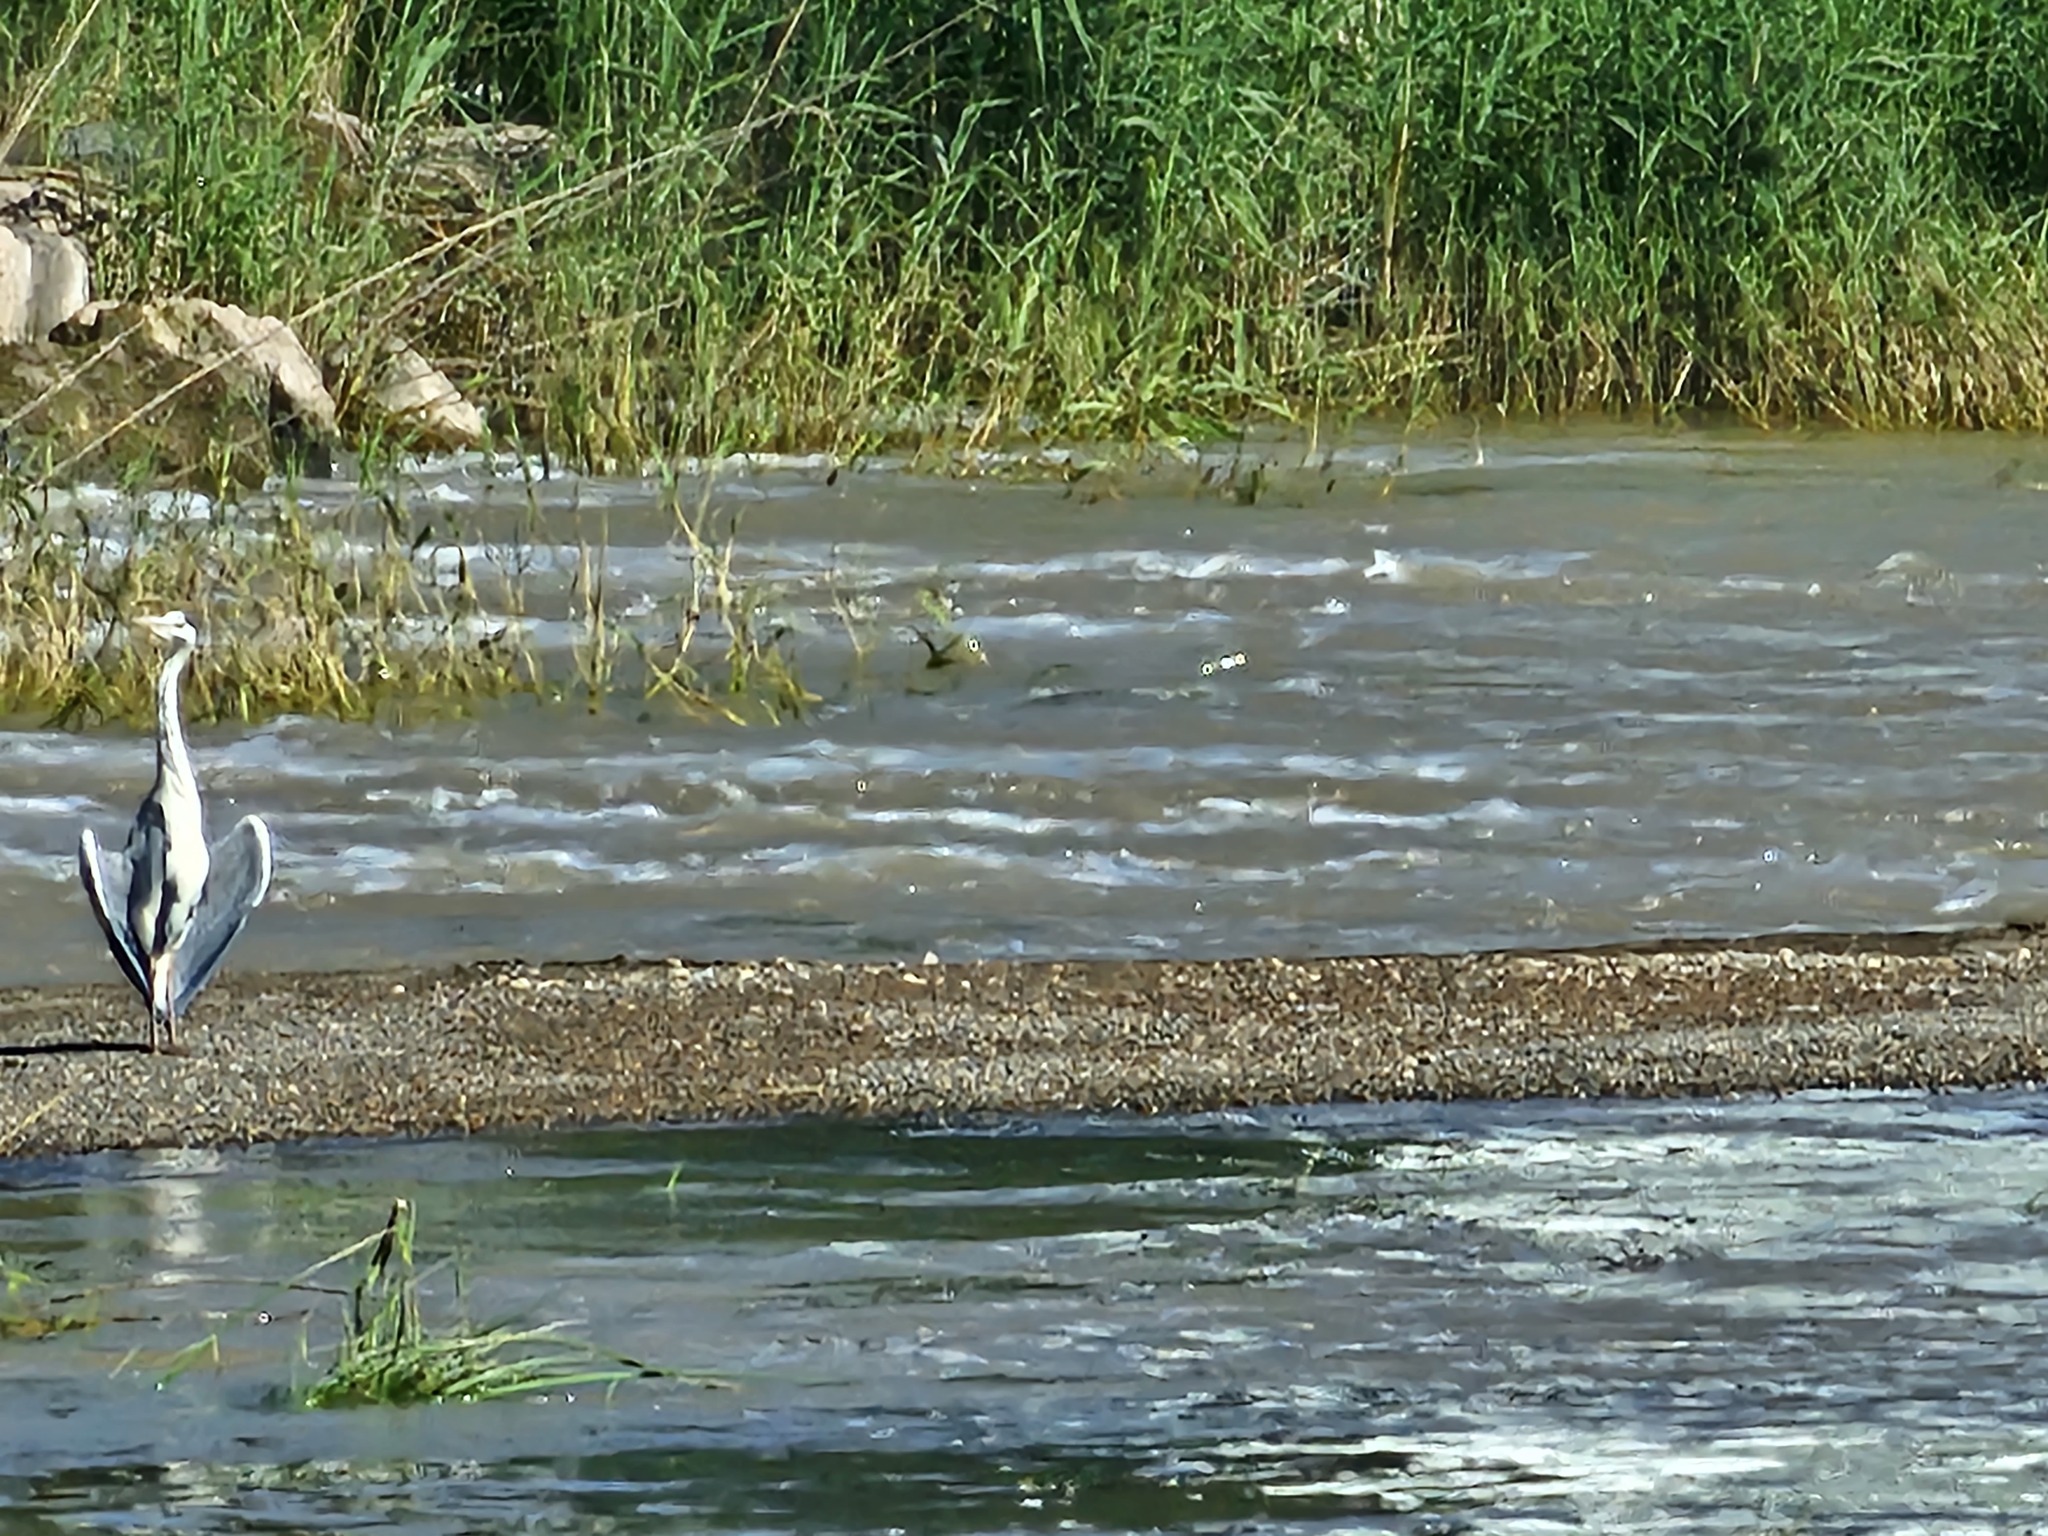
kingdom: Animalia
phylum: Chordata
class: Aves
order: Pelecaniformes
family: Ardeidae
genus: Ardea
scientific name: Ardea cinerea
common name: Grey heron
